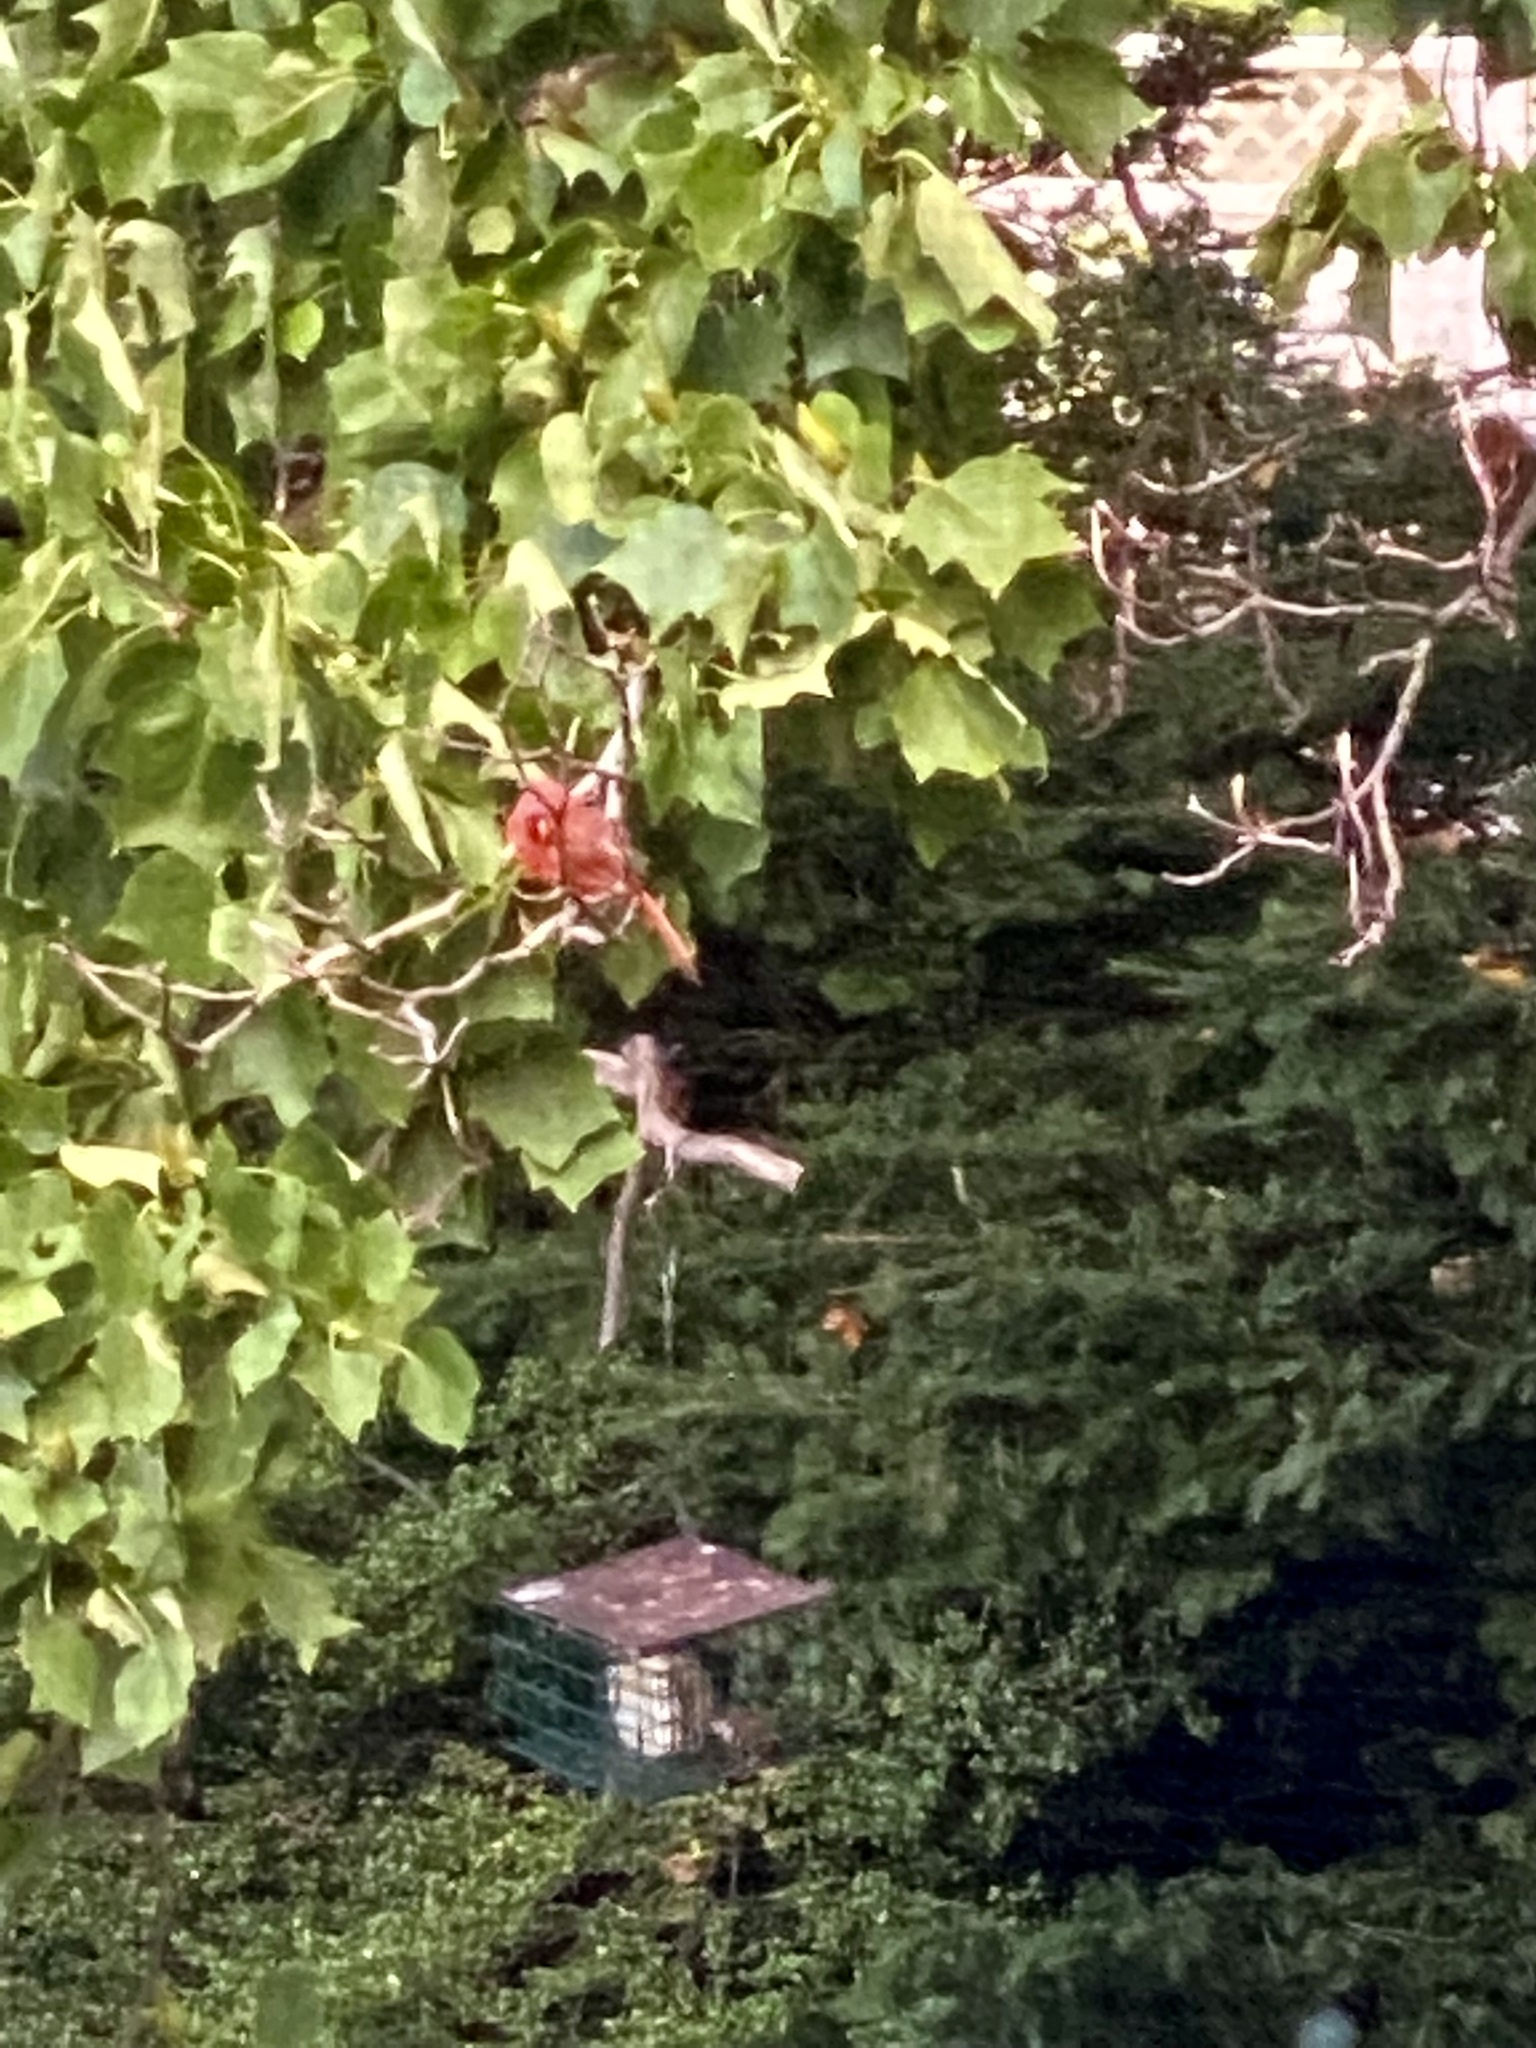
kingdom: Animalia
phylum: Chordata
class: Aves
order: Passeriformes
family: Cardinalidae
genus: Cardinalis
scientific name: Cardinalis cardinalis
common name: Northern cardinal
